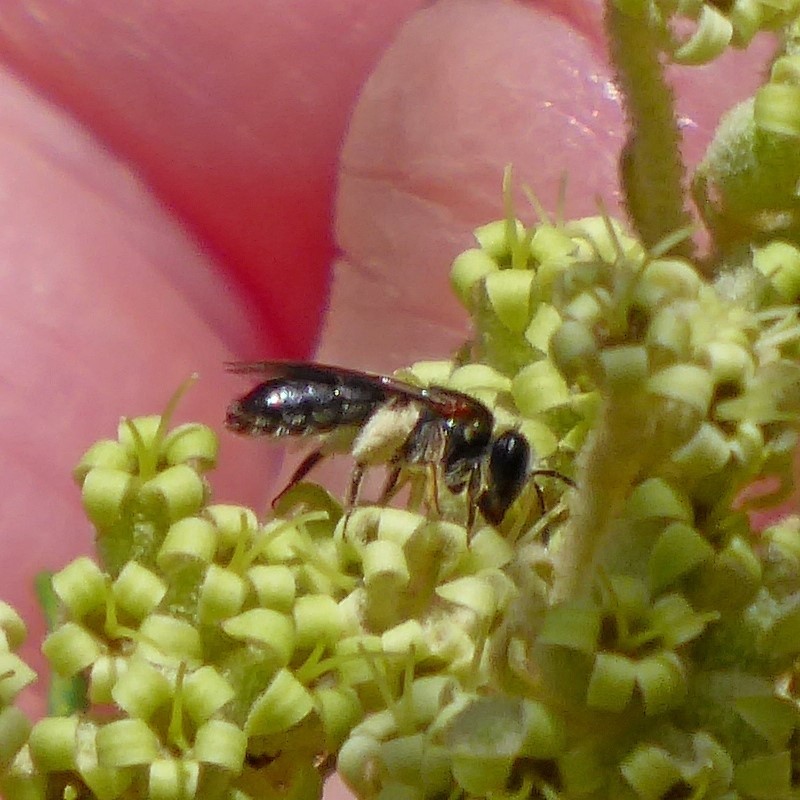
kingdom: Animalia
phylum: Arthropoda
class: Insecta
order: Hymenoptera
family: Colletidae
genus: Leioproctus
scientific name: Leioproctus launcestonensis
